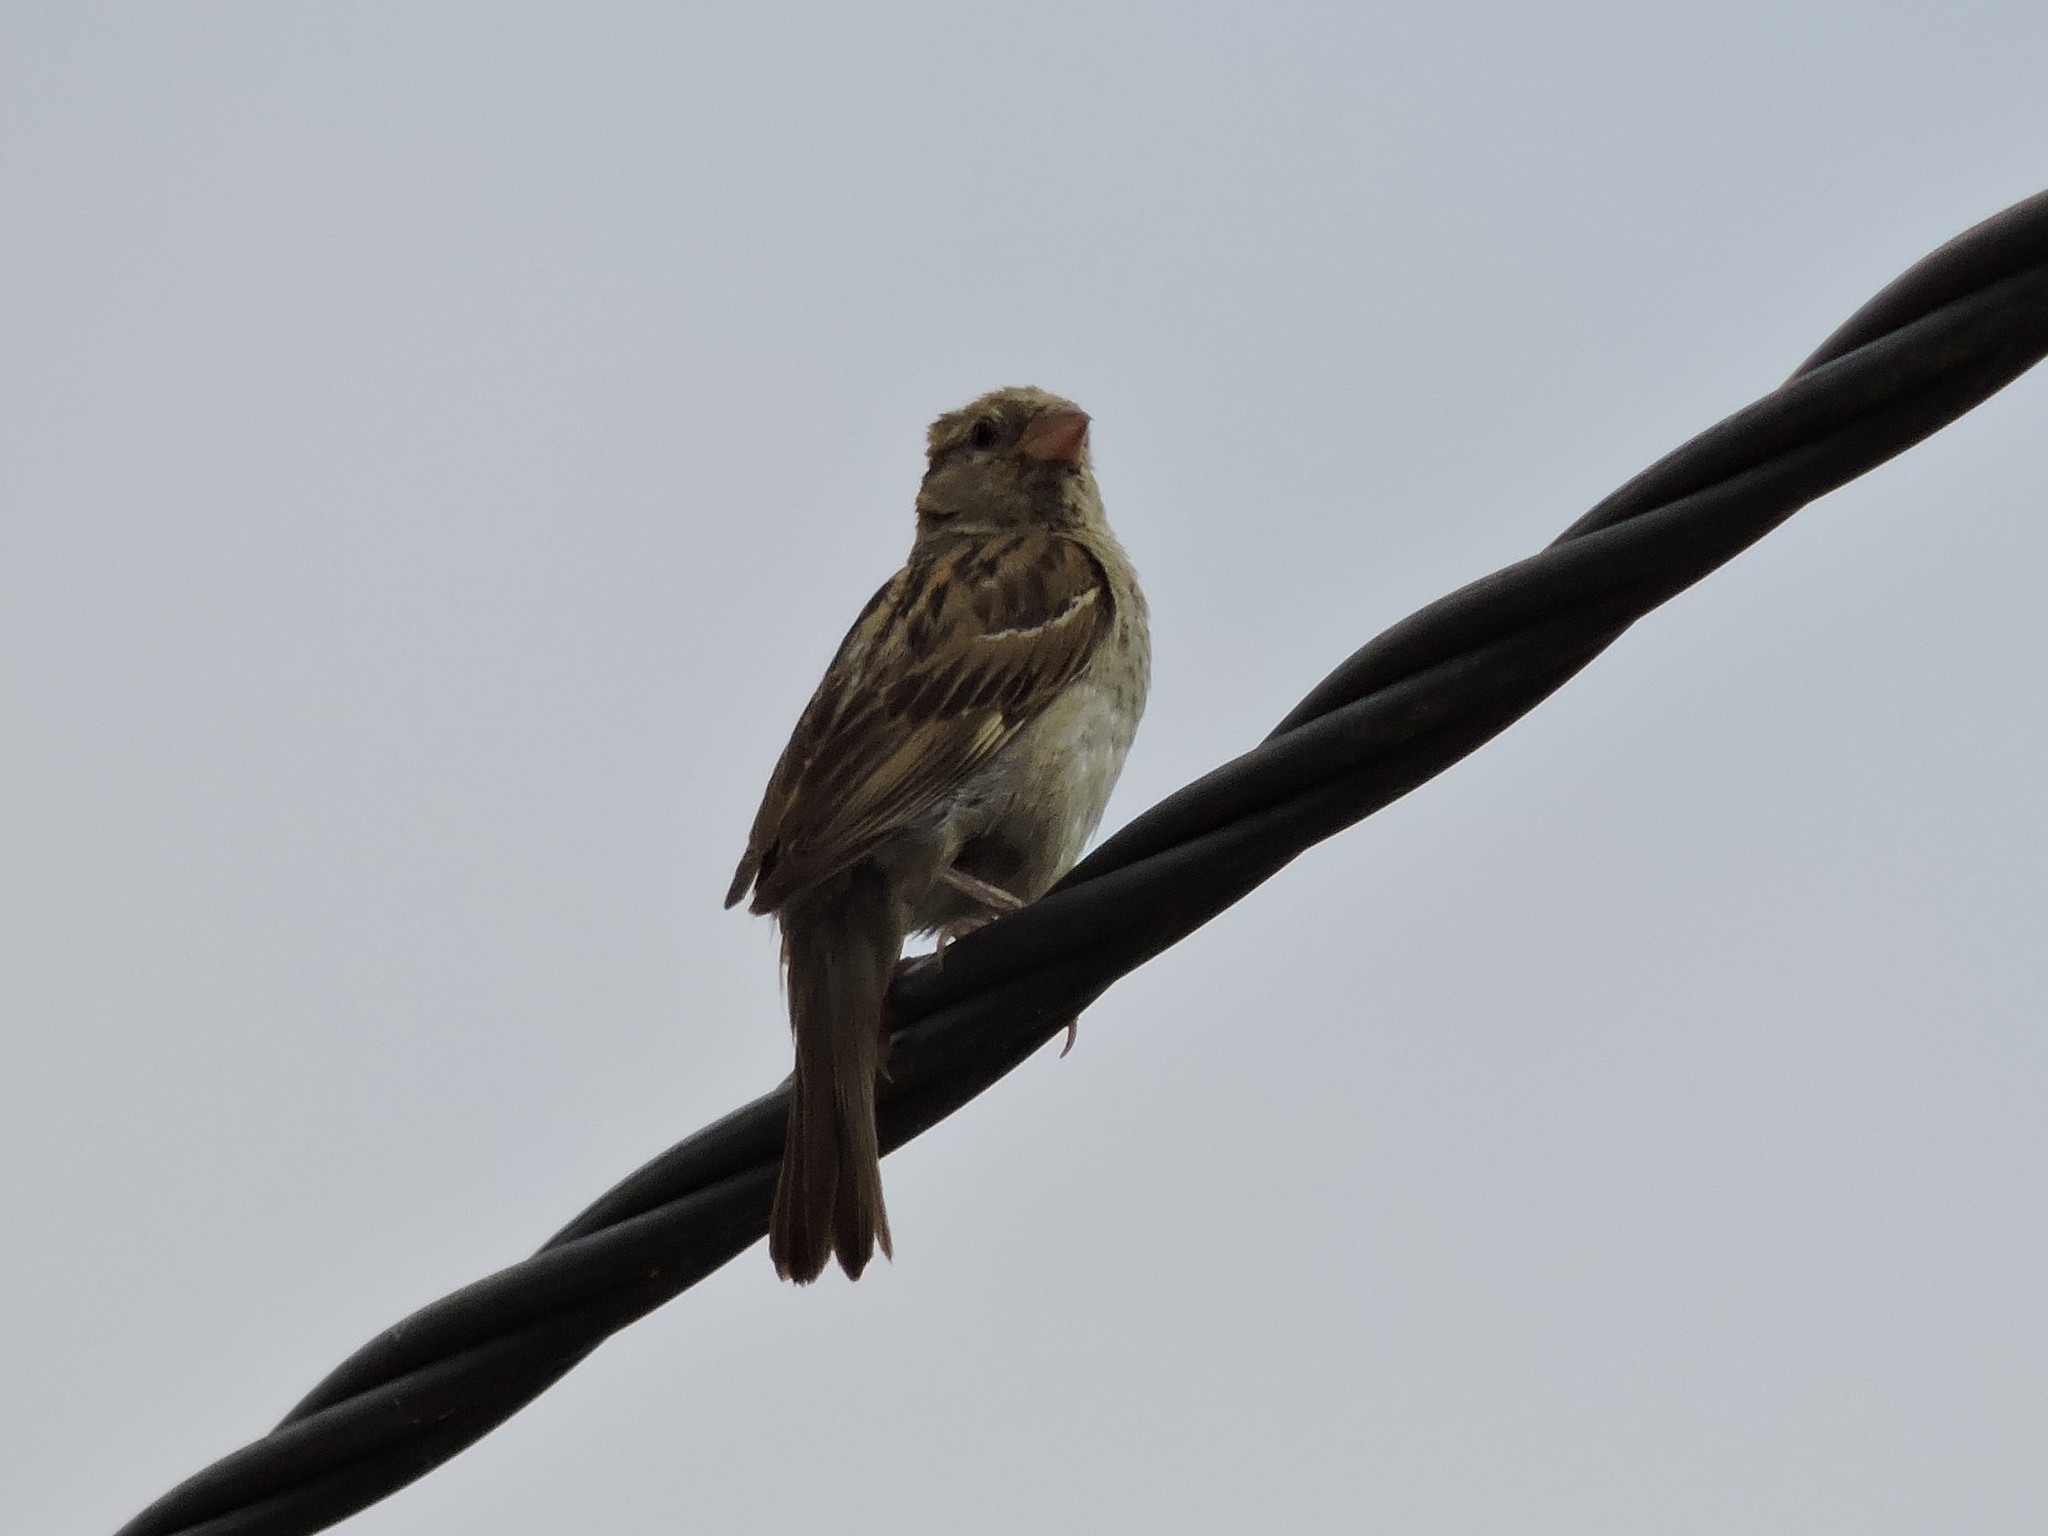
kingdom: Animalia
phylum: Chordata
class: Aves
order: Passeriformes
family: Passeridae
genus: Passer
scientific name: Passer domesticus
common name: House sparrow
